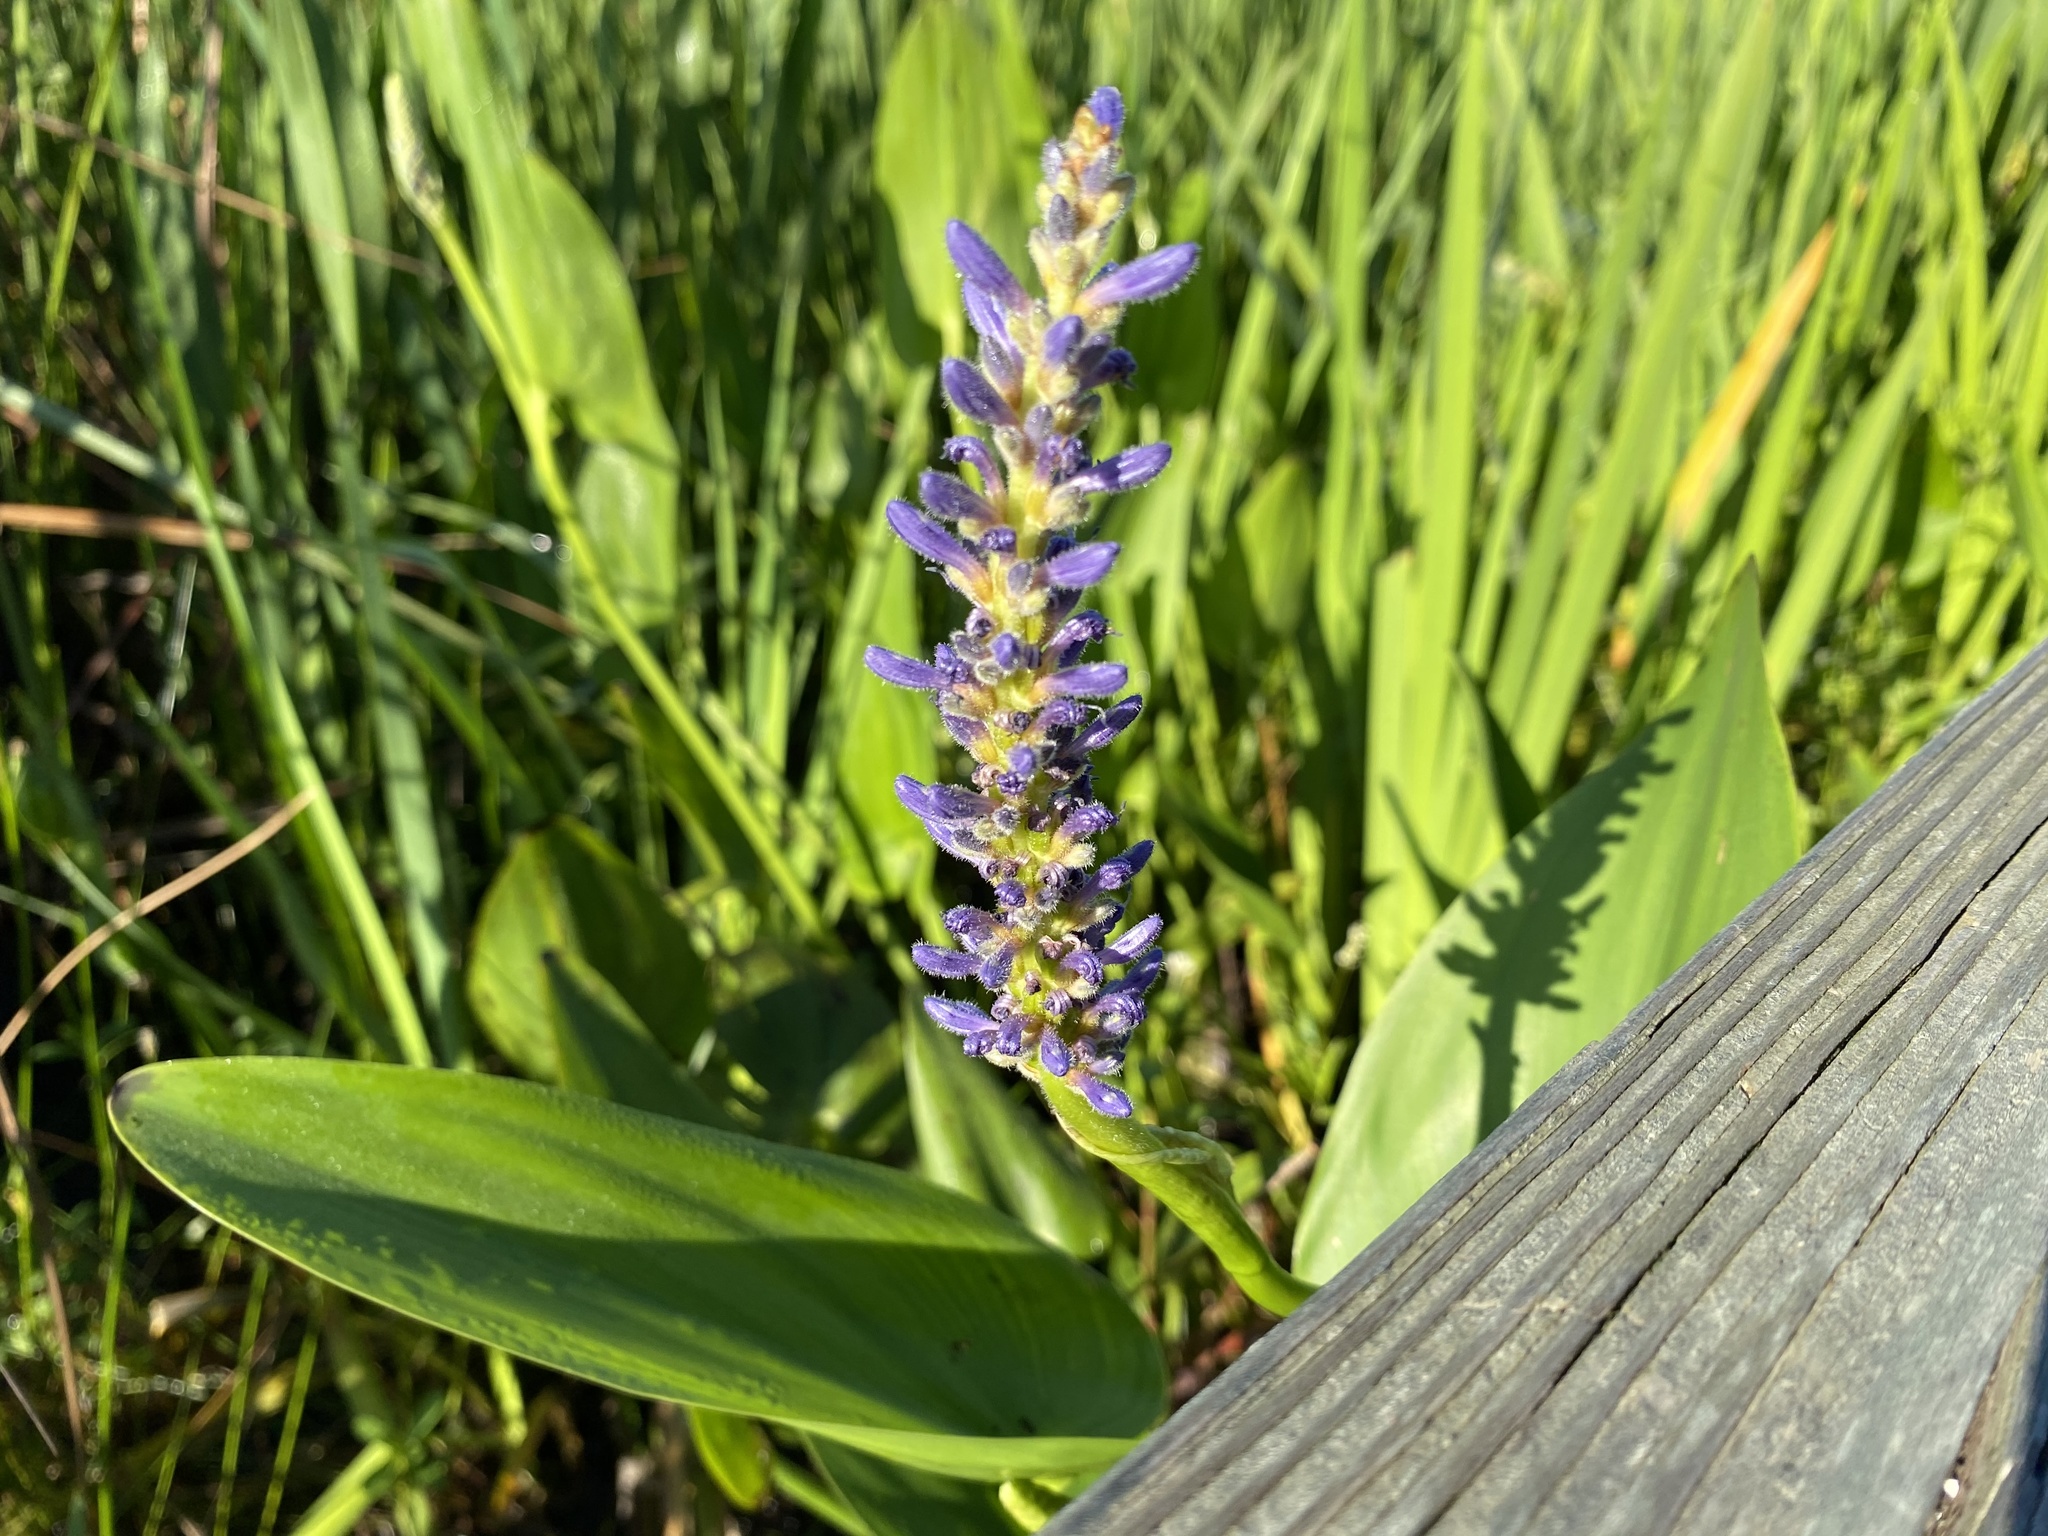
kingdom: Plantae
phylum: Tracheophyta
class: Liliopsida
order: Commelinales
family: Pontederiaceae
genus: Pontederia
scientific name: Pontederia cordata
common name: Pickerelweed
